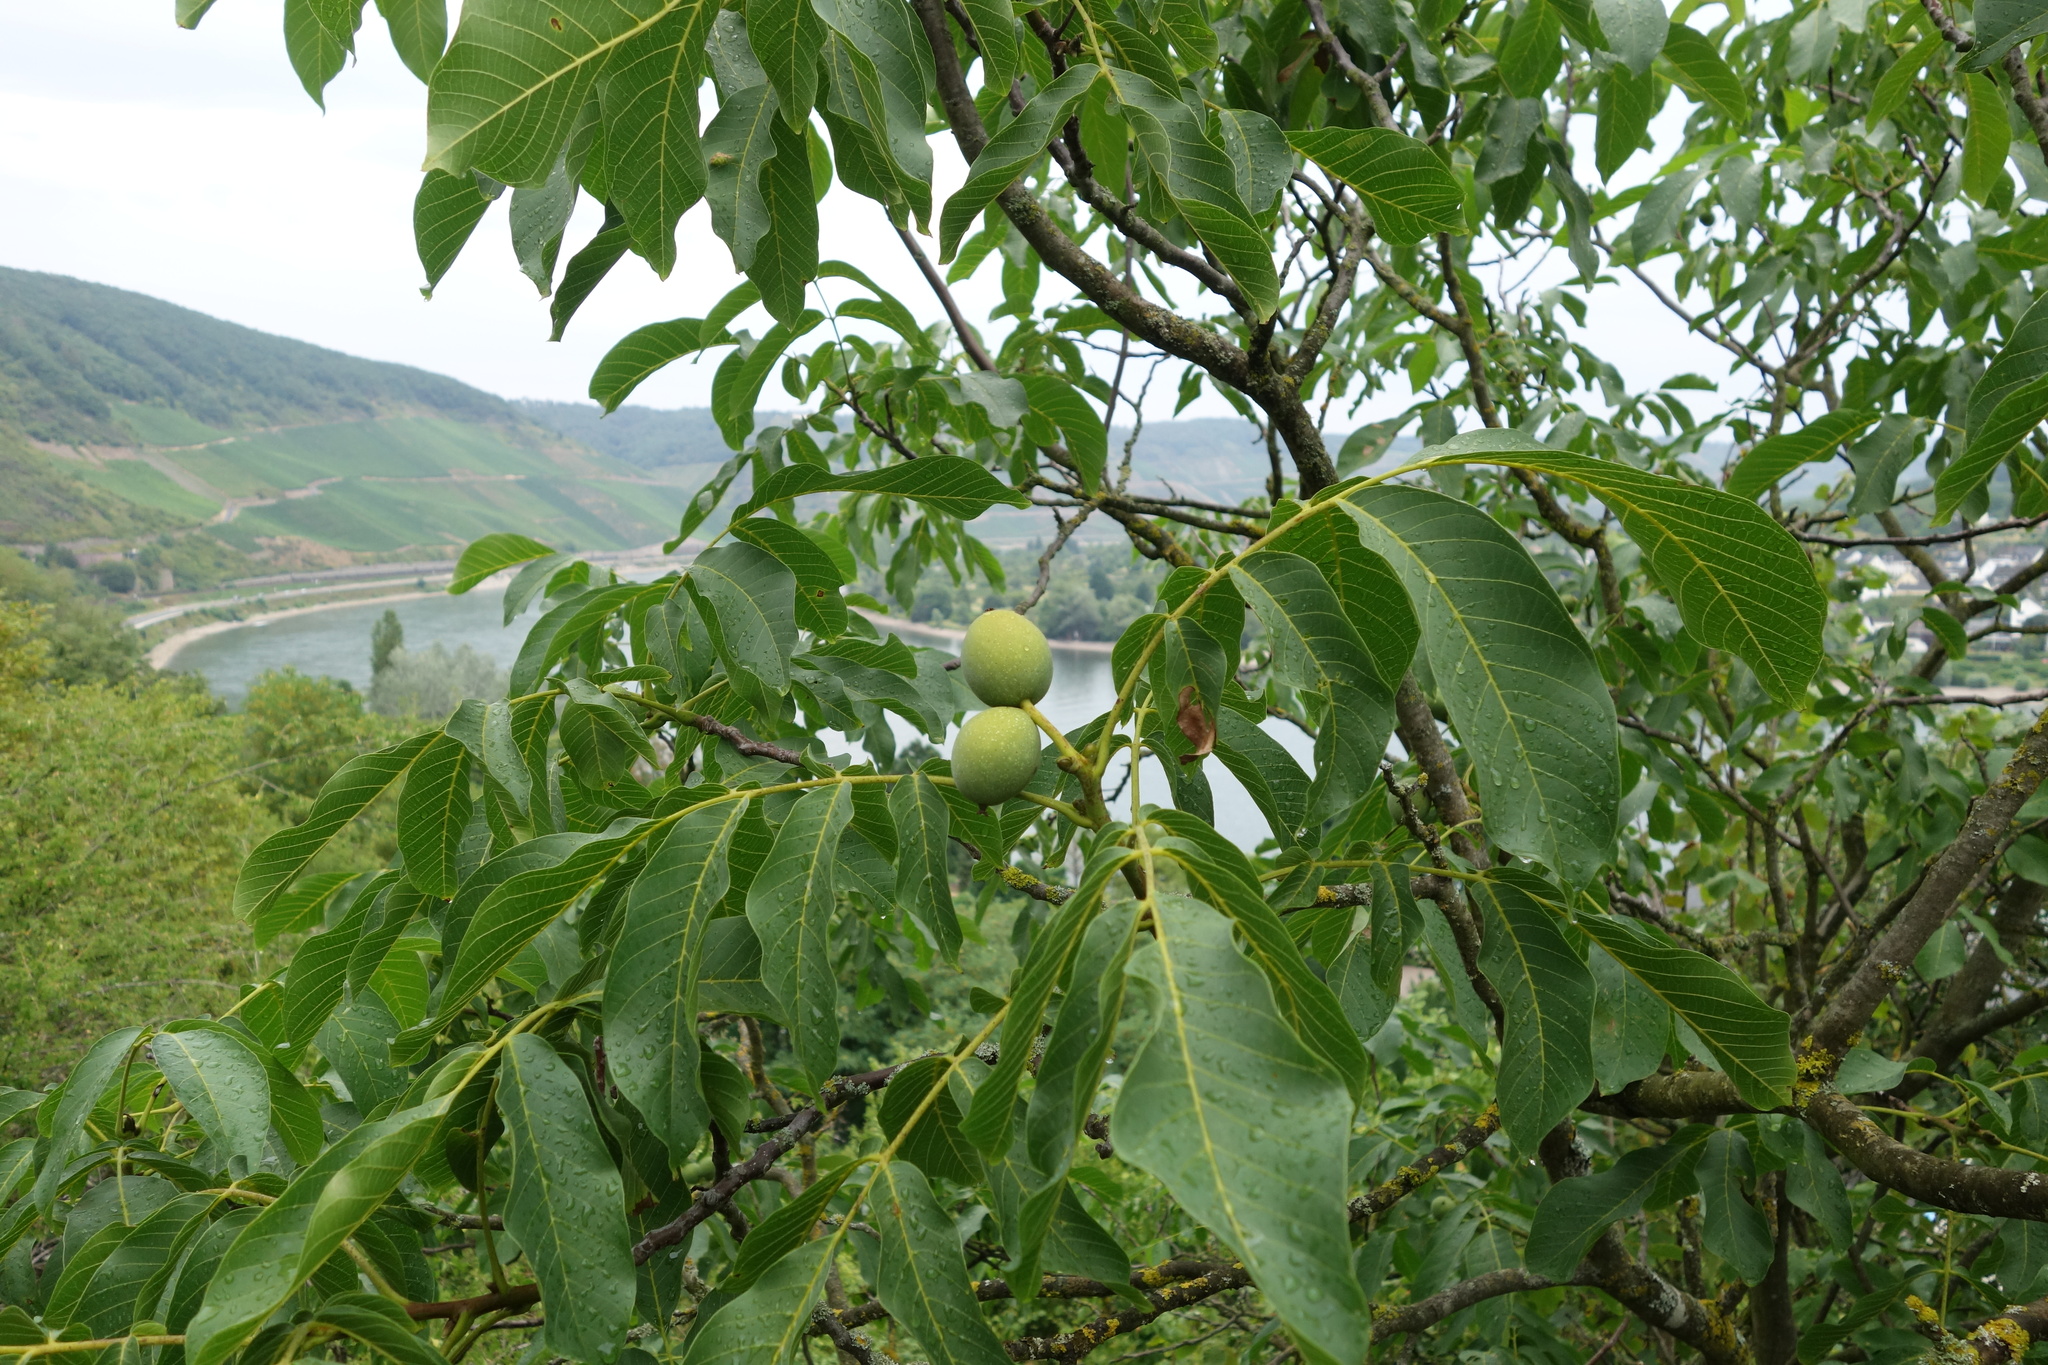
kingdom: Plantae
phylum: Tracheophyta
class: Magnoliopsida
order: Fagales
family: Juglandaceae
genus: Juglans
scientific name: Juglans regia
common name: Walnut
